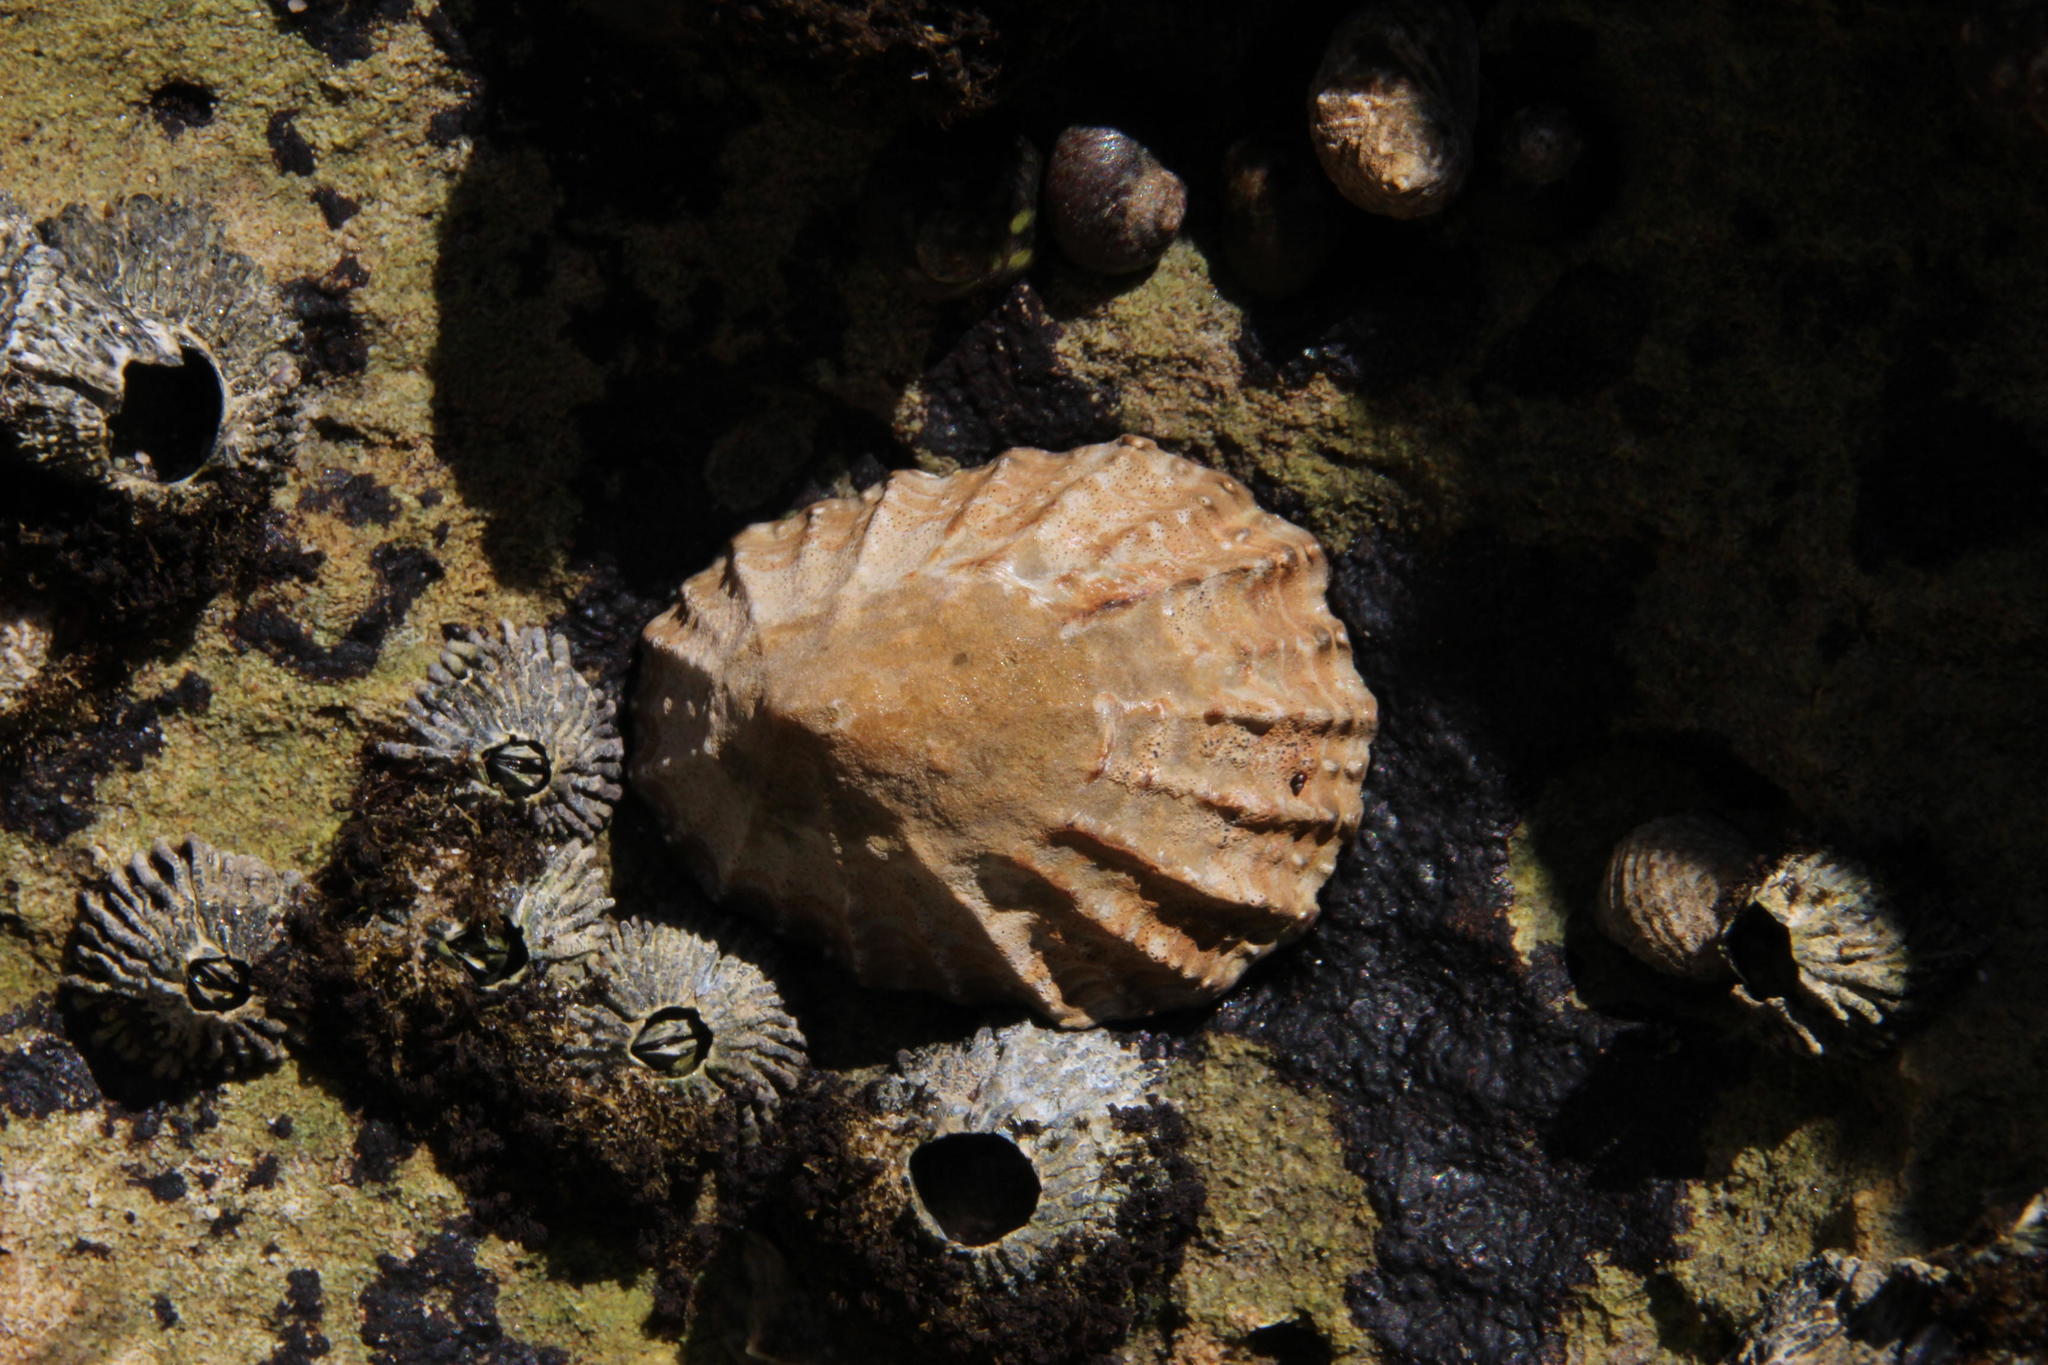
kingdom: Animalia
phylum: Arthropoda
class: Maxillopoda
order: Sessilia
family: Tetraclitidae
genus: Tetraclita
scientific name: Tetraclita serrata
